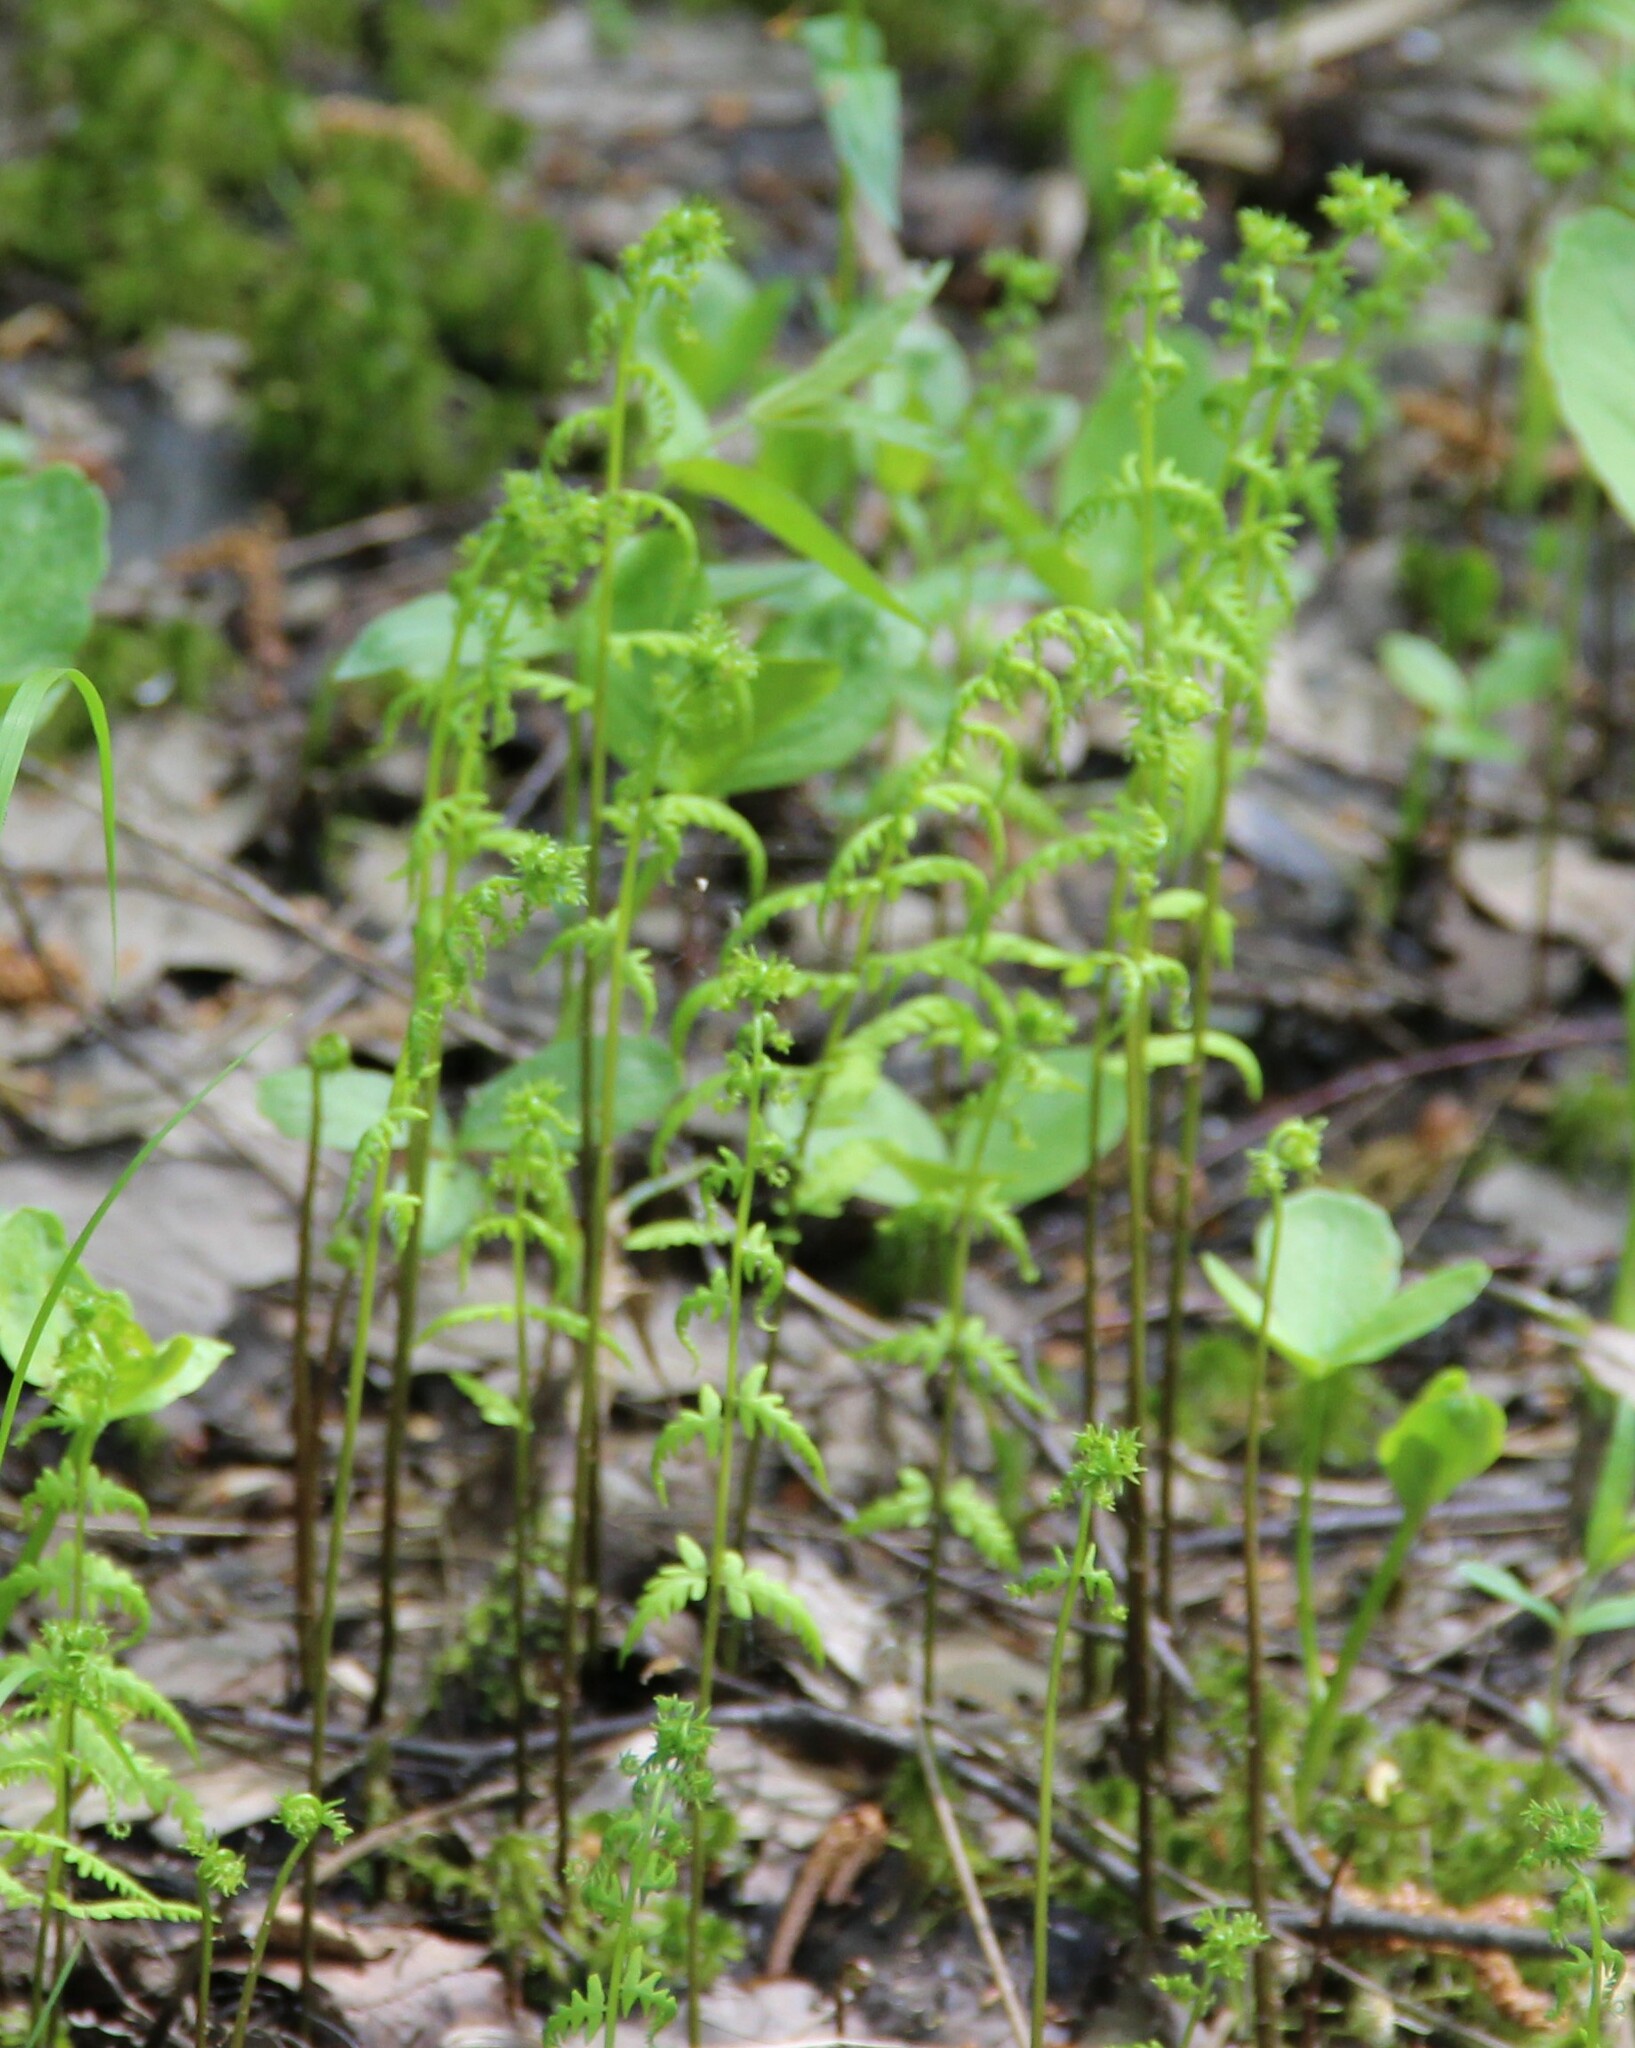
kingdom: Plantae
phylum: Tracheophyta
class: Polypodiopsida
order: Polypodiales
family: Thelypteridaceae
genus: Thelypteris
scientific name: Thelypteris palustris
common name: Marsh fern
